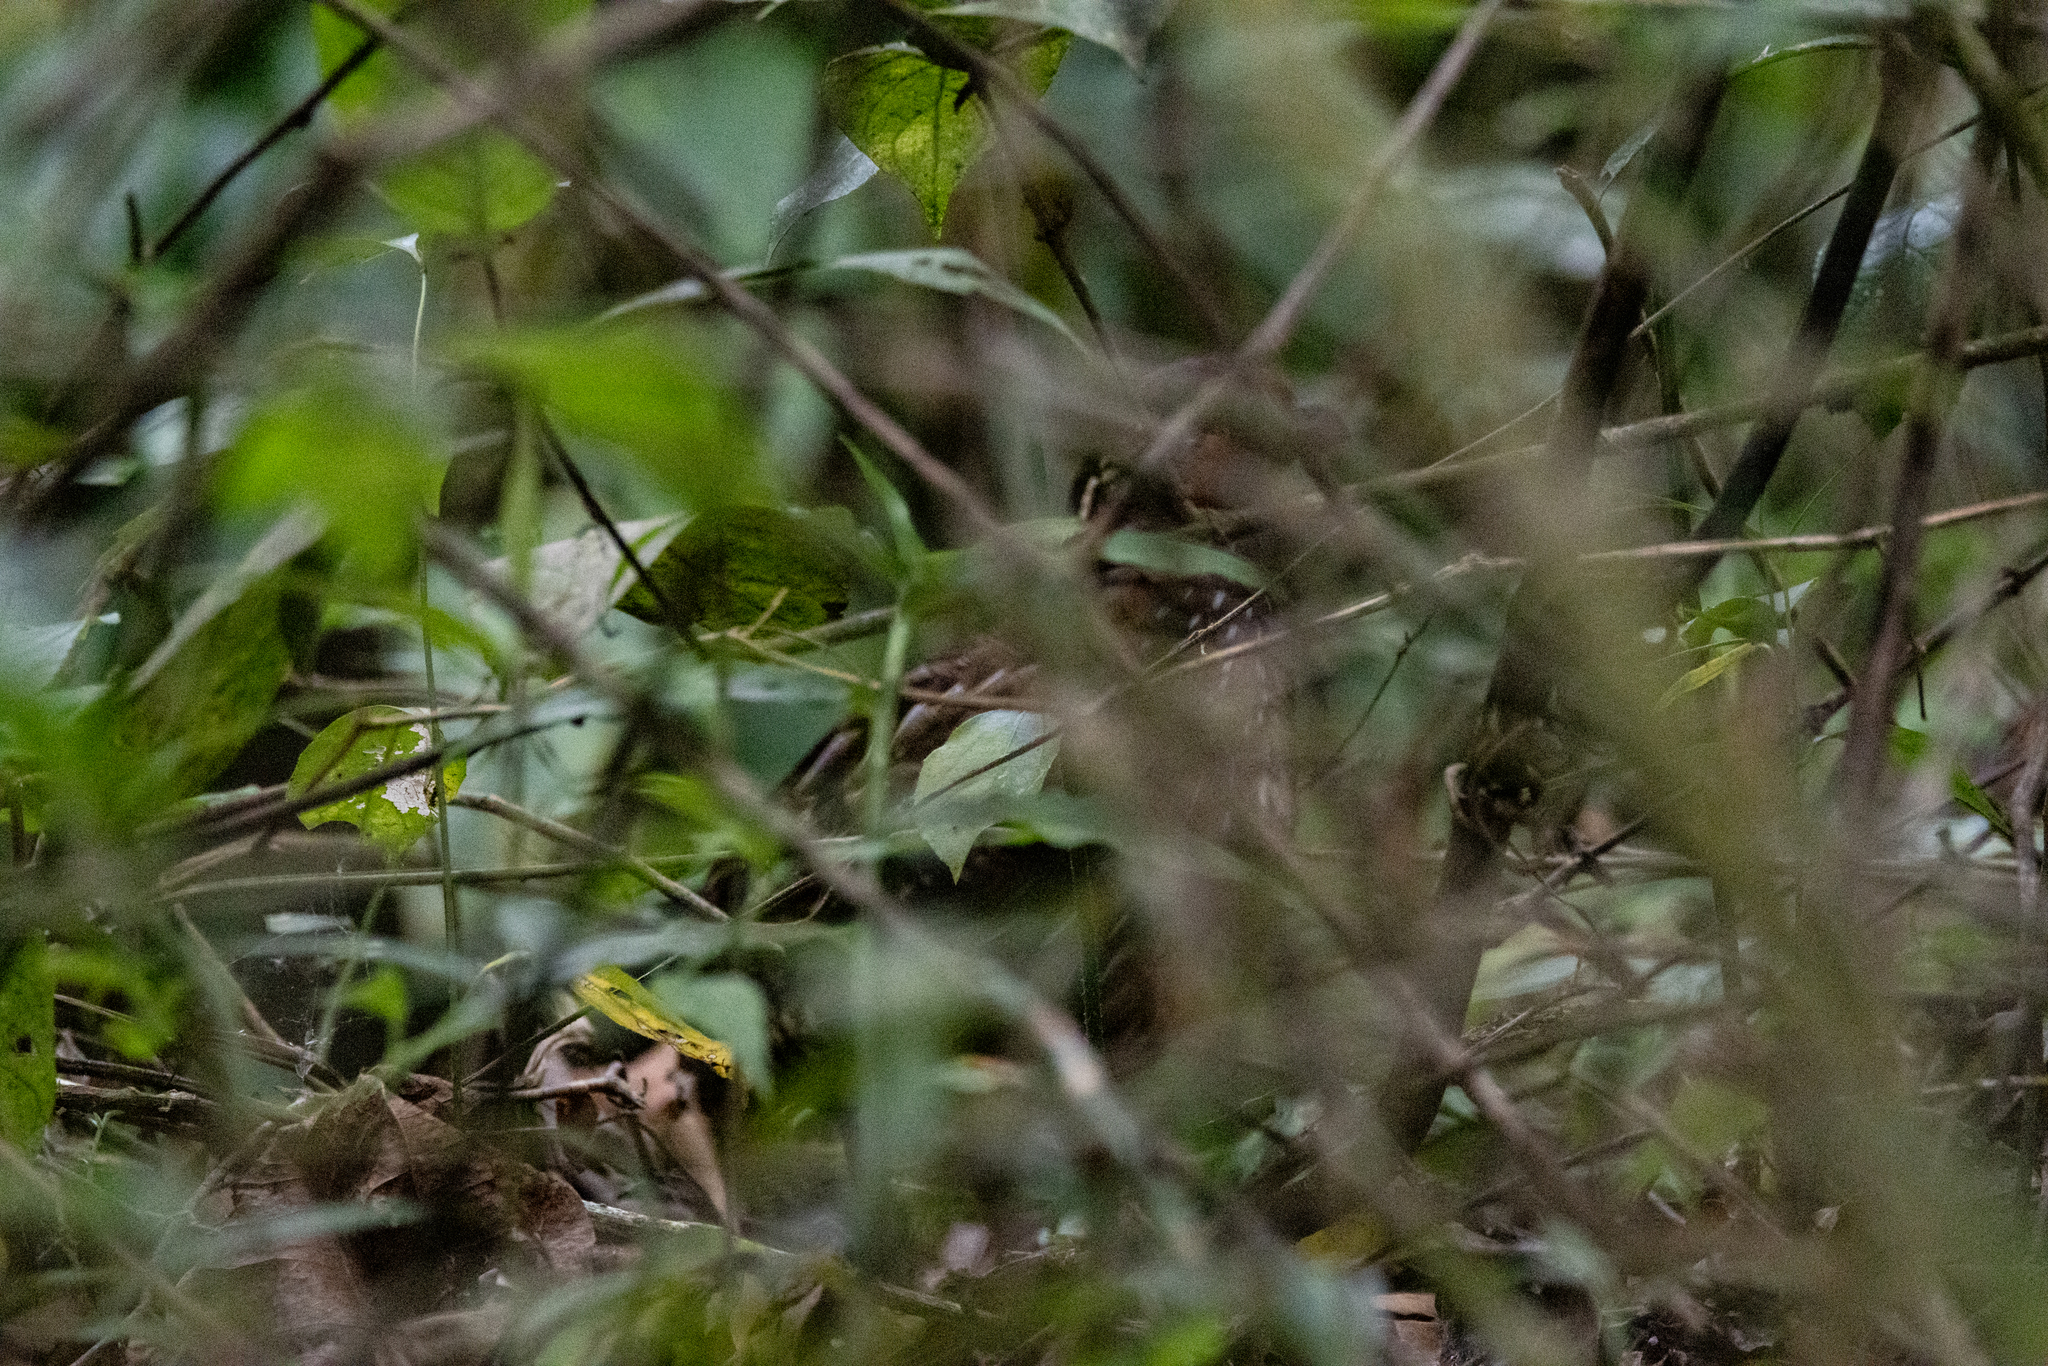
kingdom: Animalia
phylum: Chordata
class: Aves
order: Galliformes
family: Odontophoridae
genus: Dactylortyx
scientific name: Dactylortyx thoracicus
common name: Singing quail
